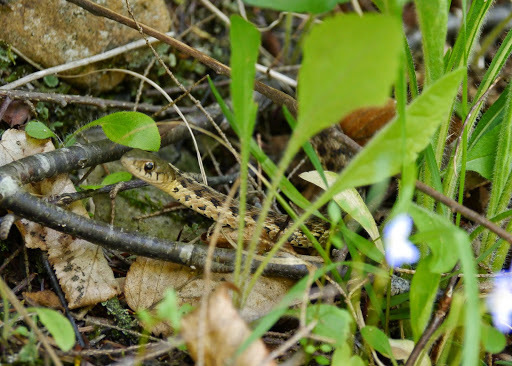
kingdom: Animalia
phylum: Chordata
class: Squamata
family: Colubridae
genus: Thamnophis
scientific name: Thamnophis sirtalis
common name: Common garter snake
